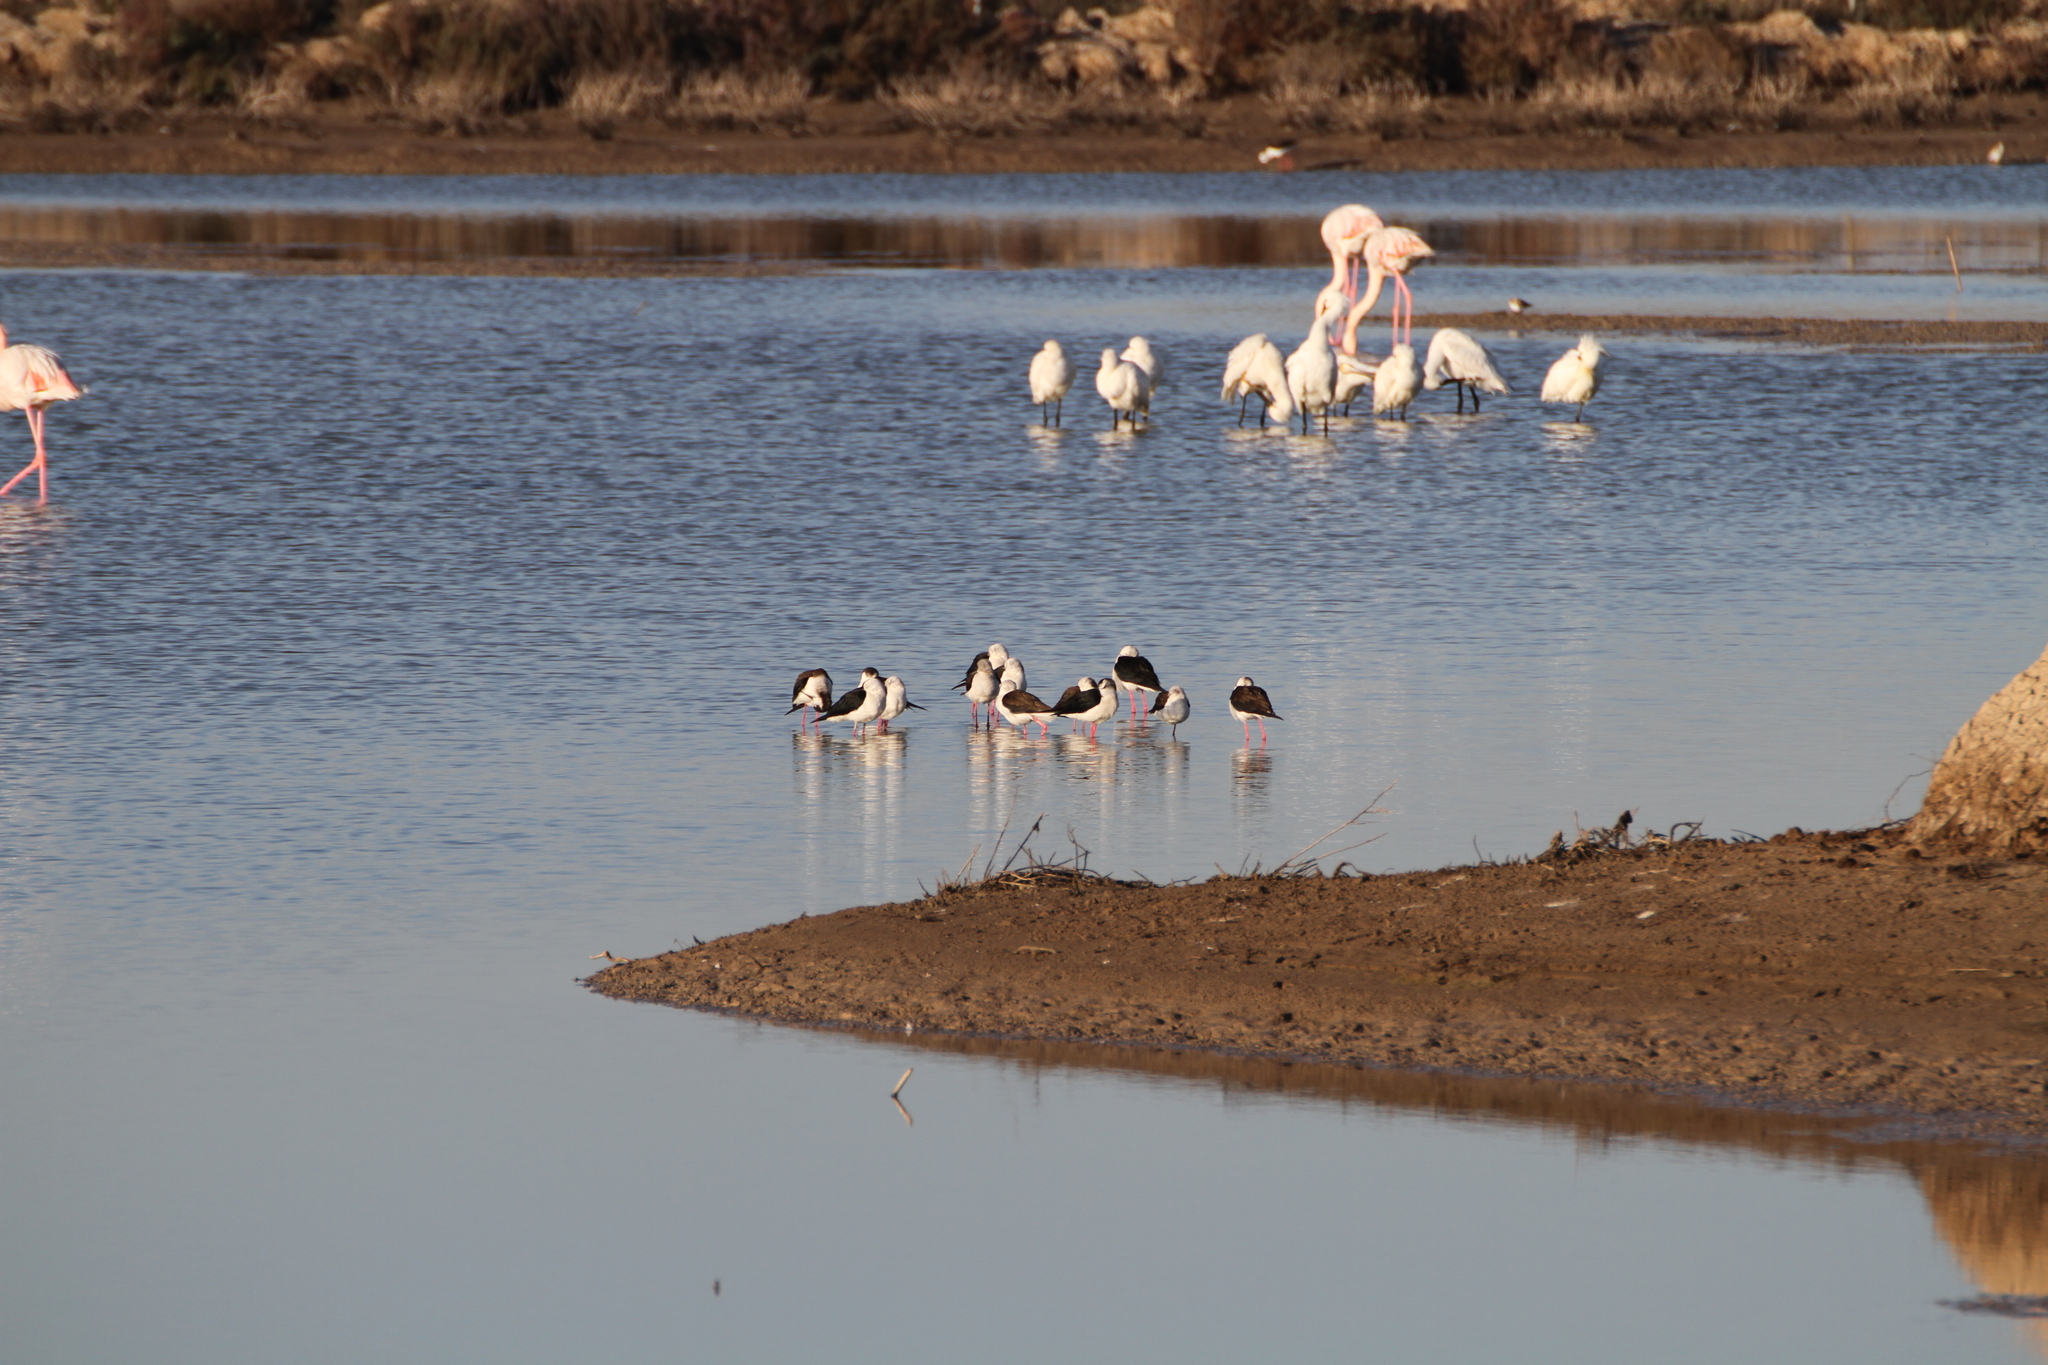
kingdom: Animalia
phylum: Chordata
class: Aves
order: Charadriiformes
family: Recurvirostridae
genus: Himantopus
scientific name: Himantopus himantopus
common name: Black-winged stilt
